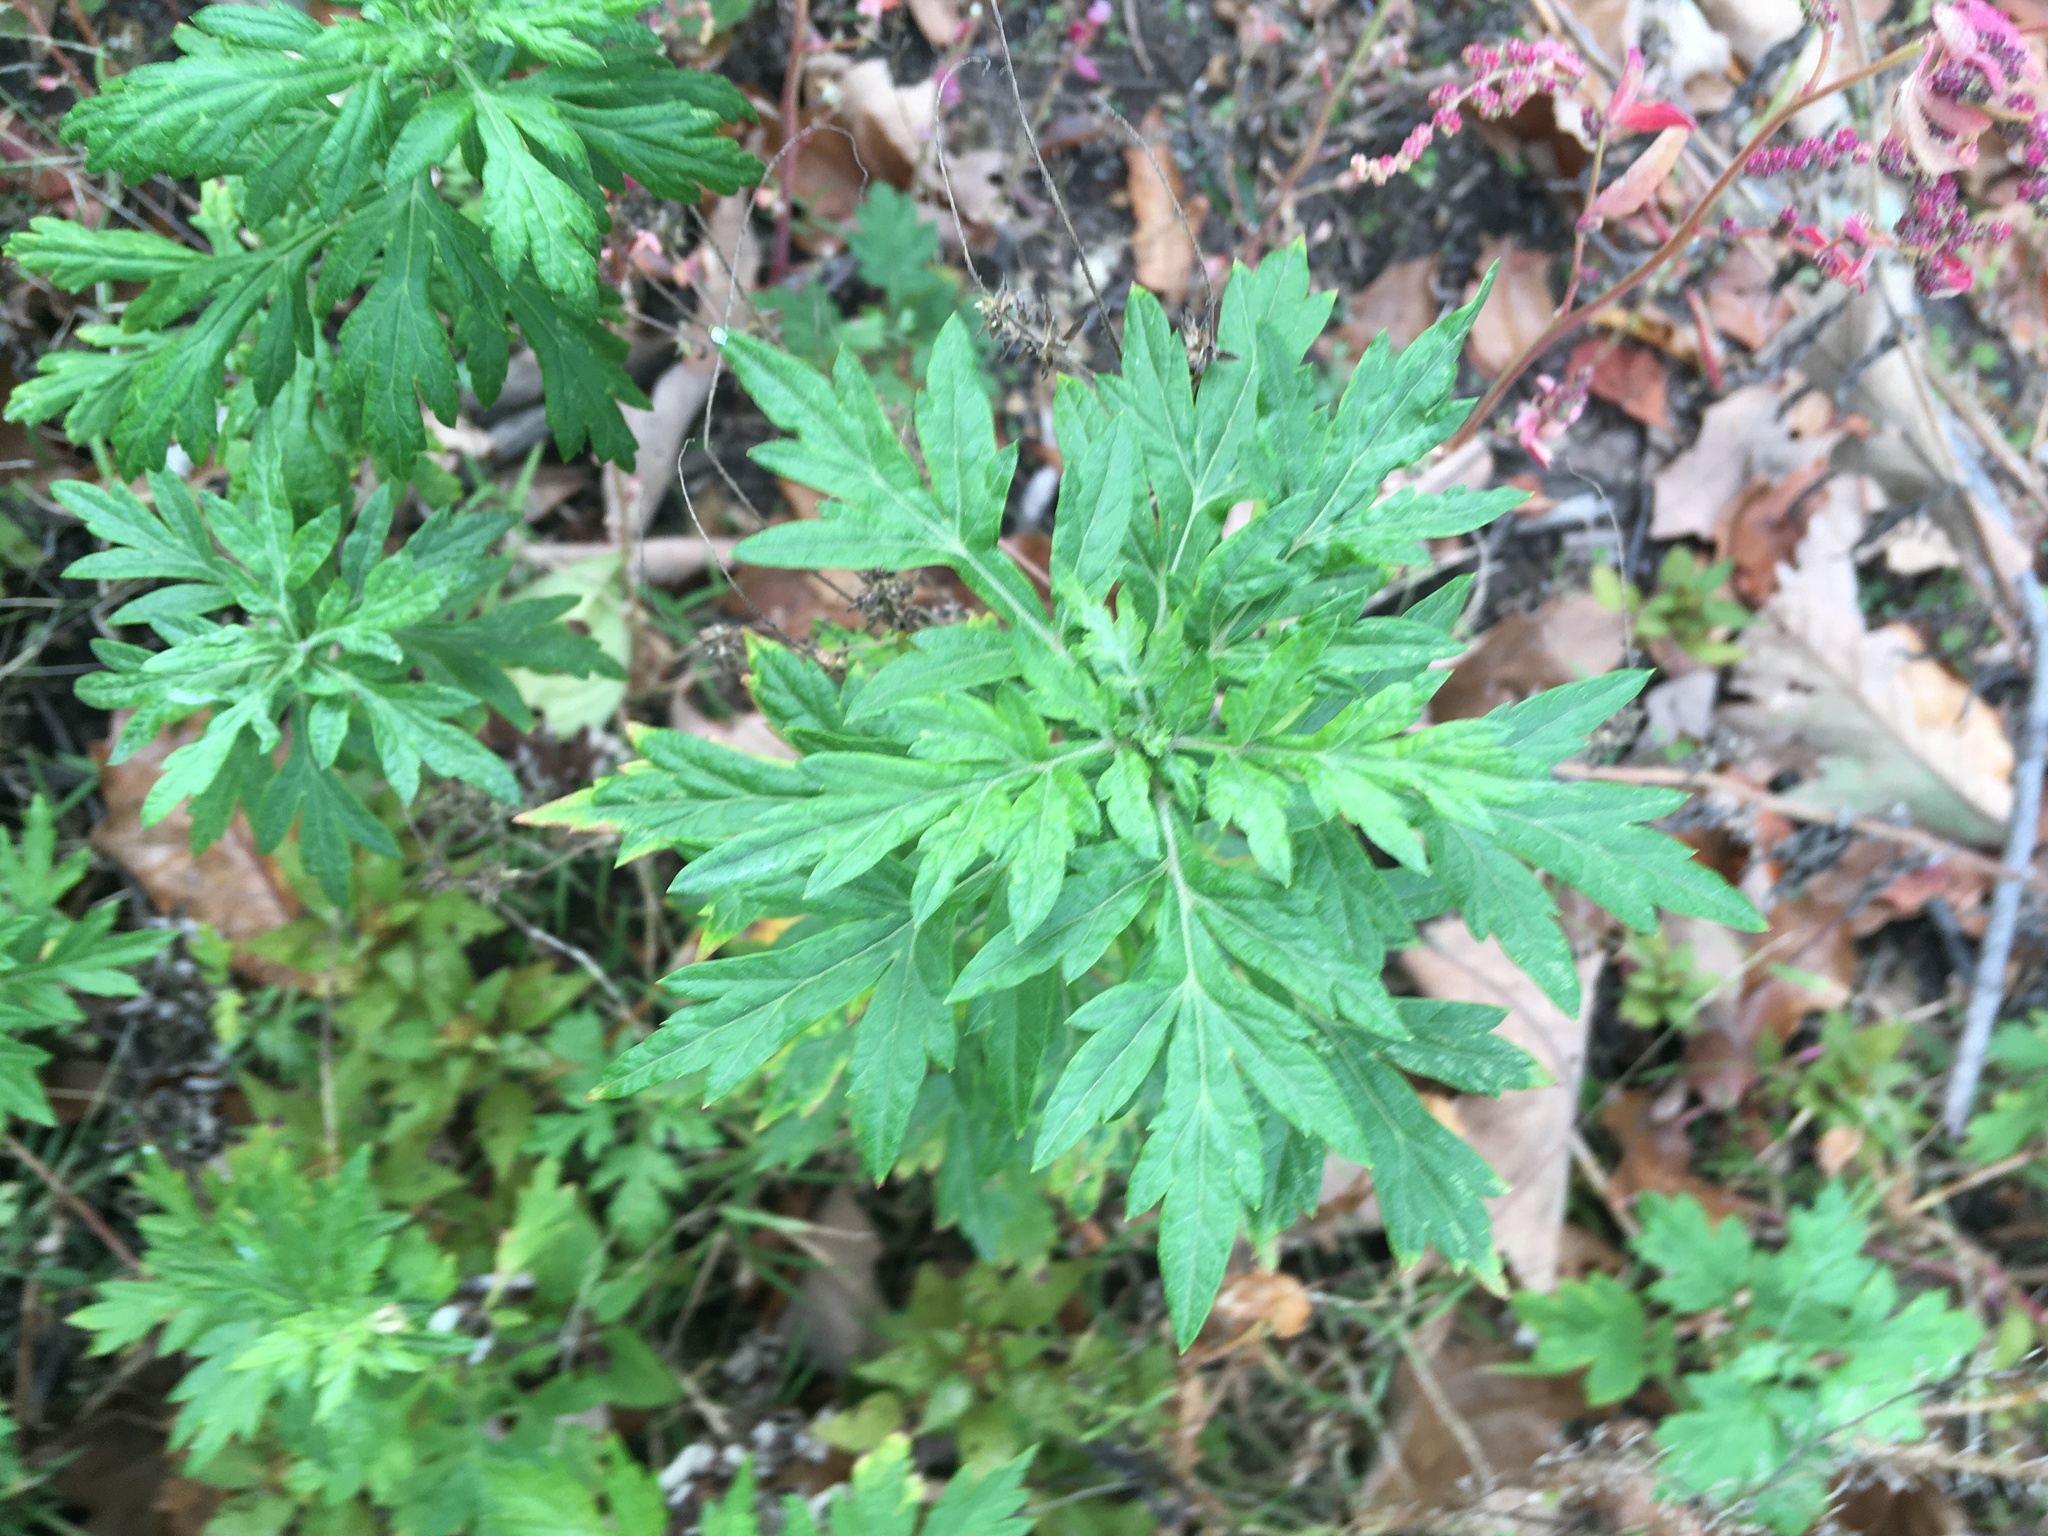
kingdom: Plantae
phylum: Tracheophyta
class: Magnoliopsida
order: Asterales
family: Asteraceae
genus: Artemisia
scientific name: Artemisia vulgaris
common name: Mugwort
